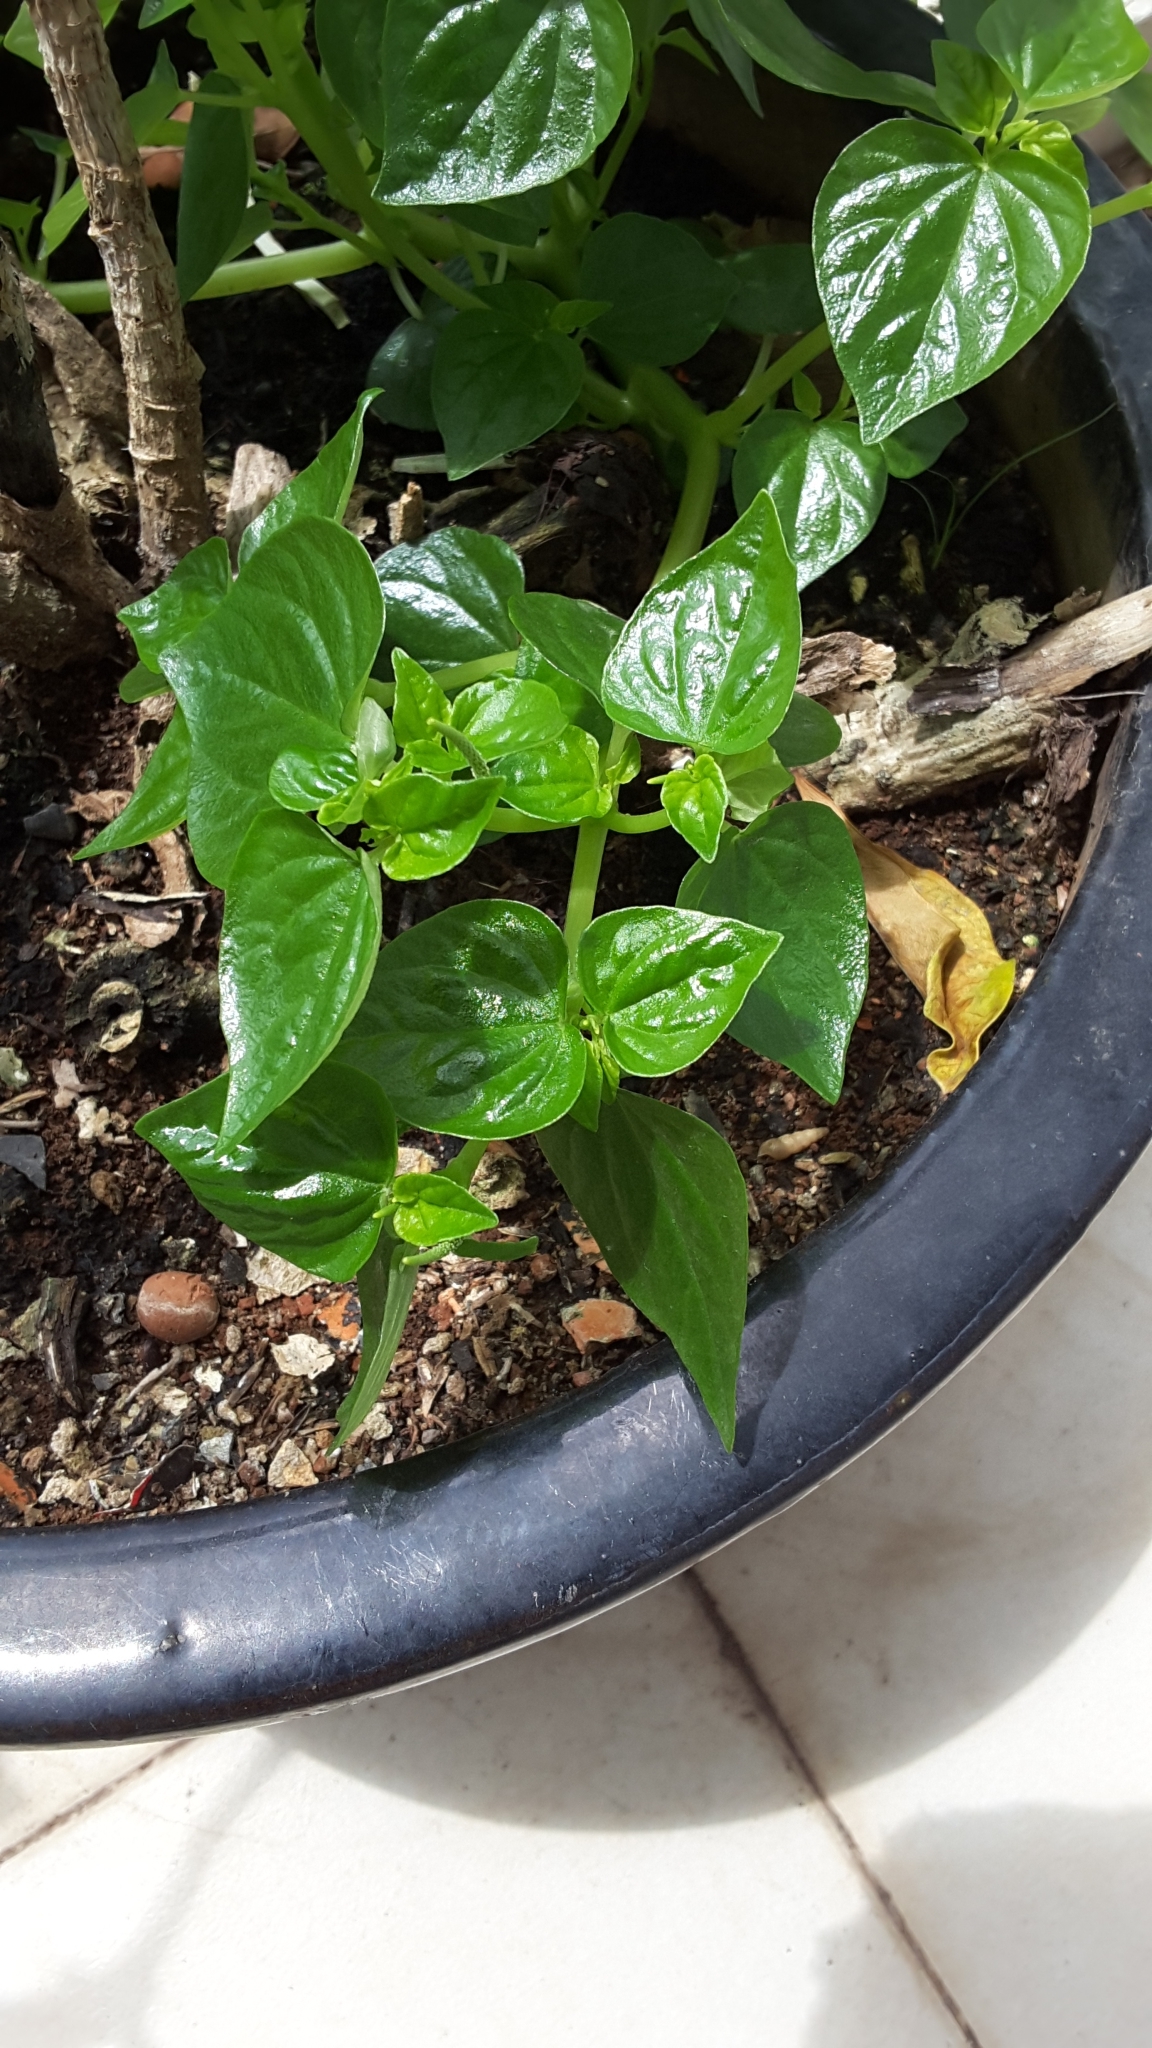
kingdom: Plantae
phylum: Tracheophyta
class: Magnoliopsida
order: Piperales
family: Piperaceae
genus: Peperomia
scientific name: Peperomia pellucida
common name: Man to man
